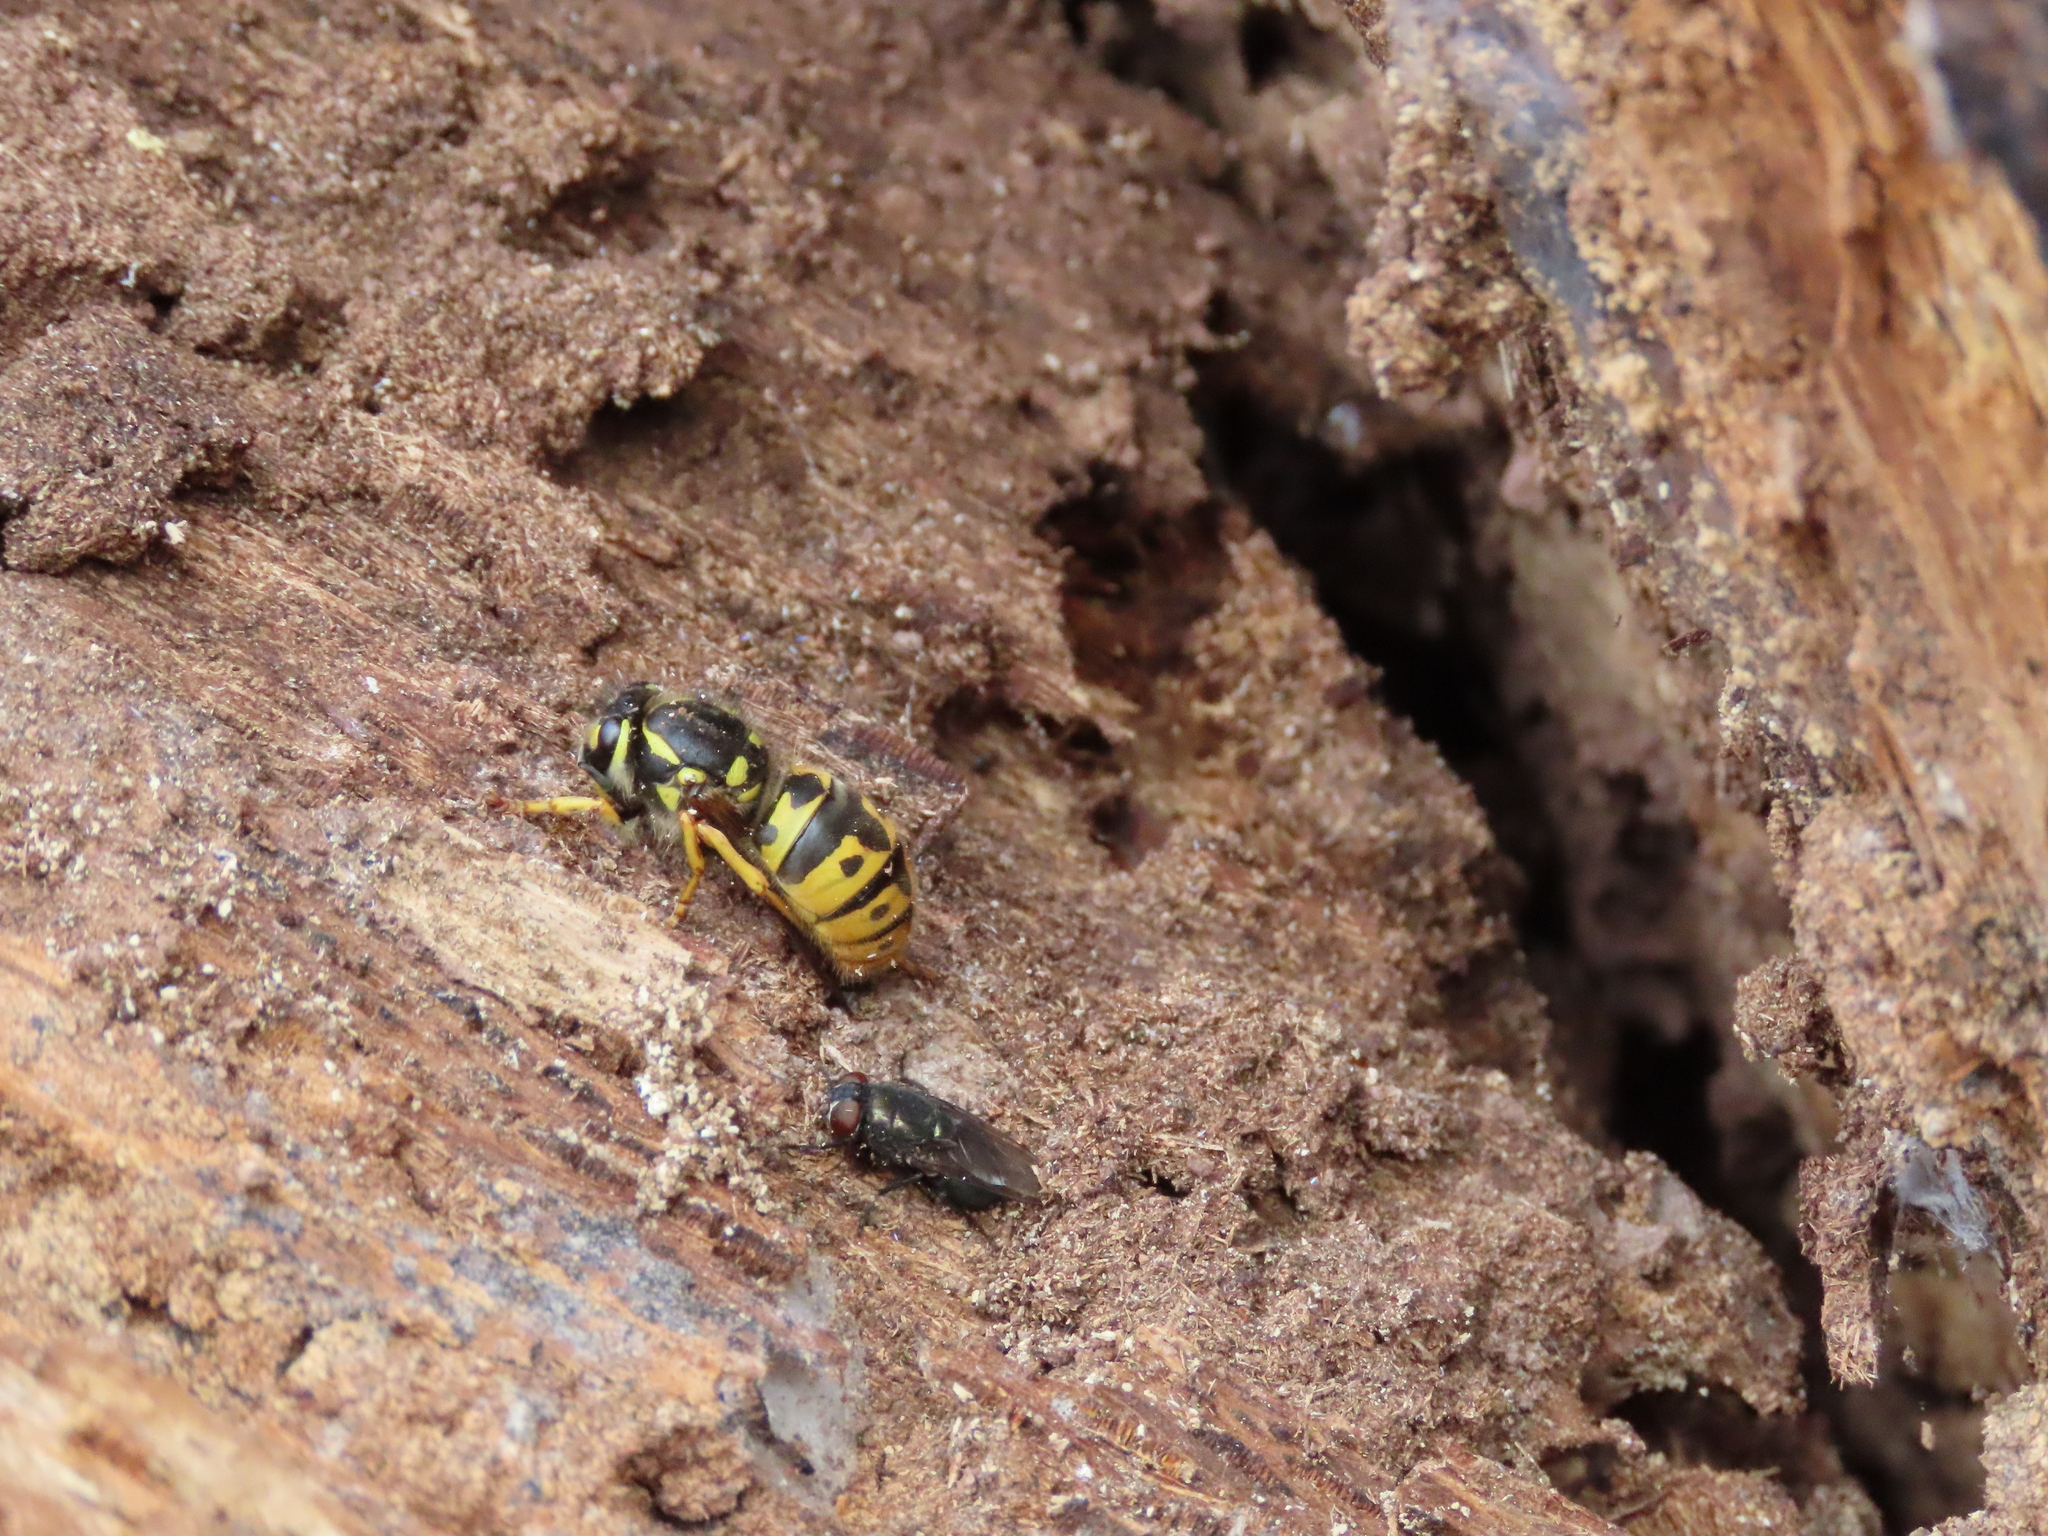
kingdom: Animalia
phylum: Arthropoda
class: Insecta
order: Hymenoptera
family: Vespidae
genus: Vespula
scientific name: Vespula germanica
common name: German wasp
